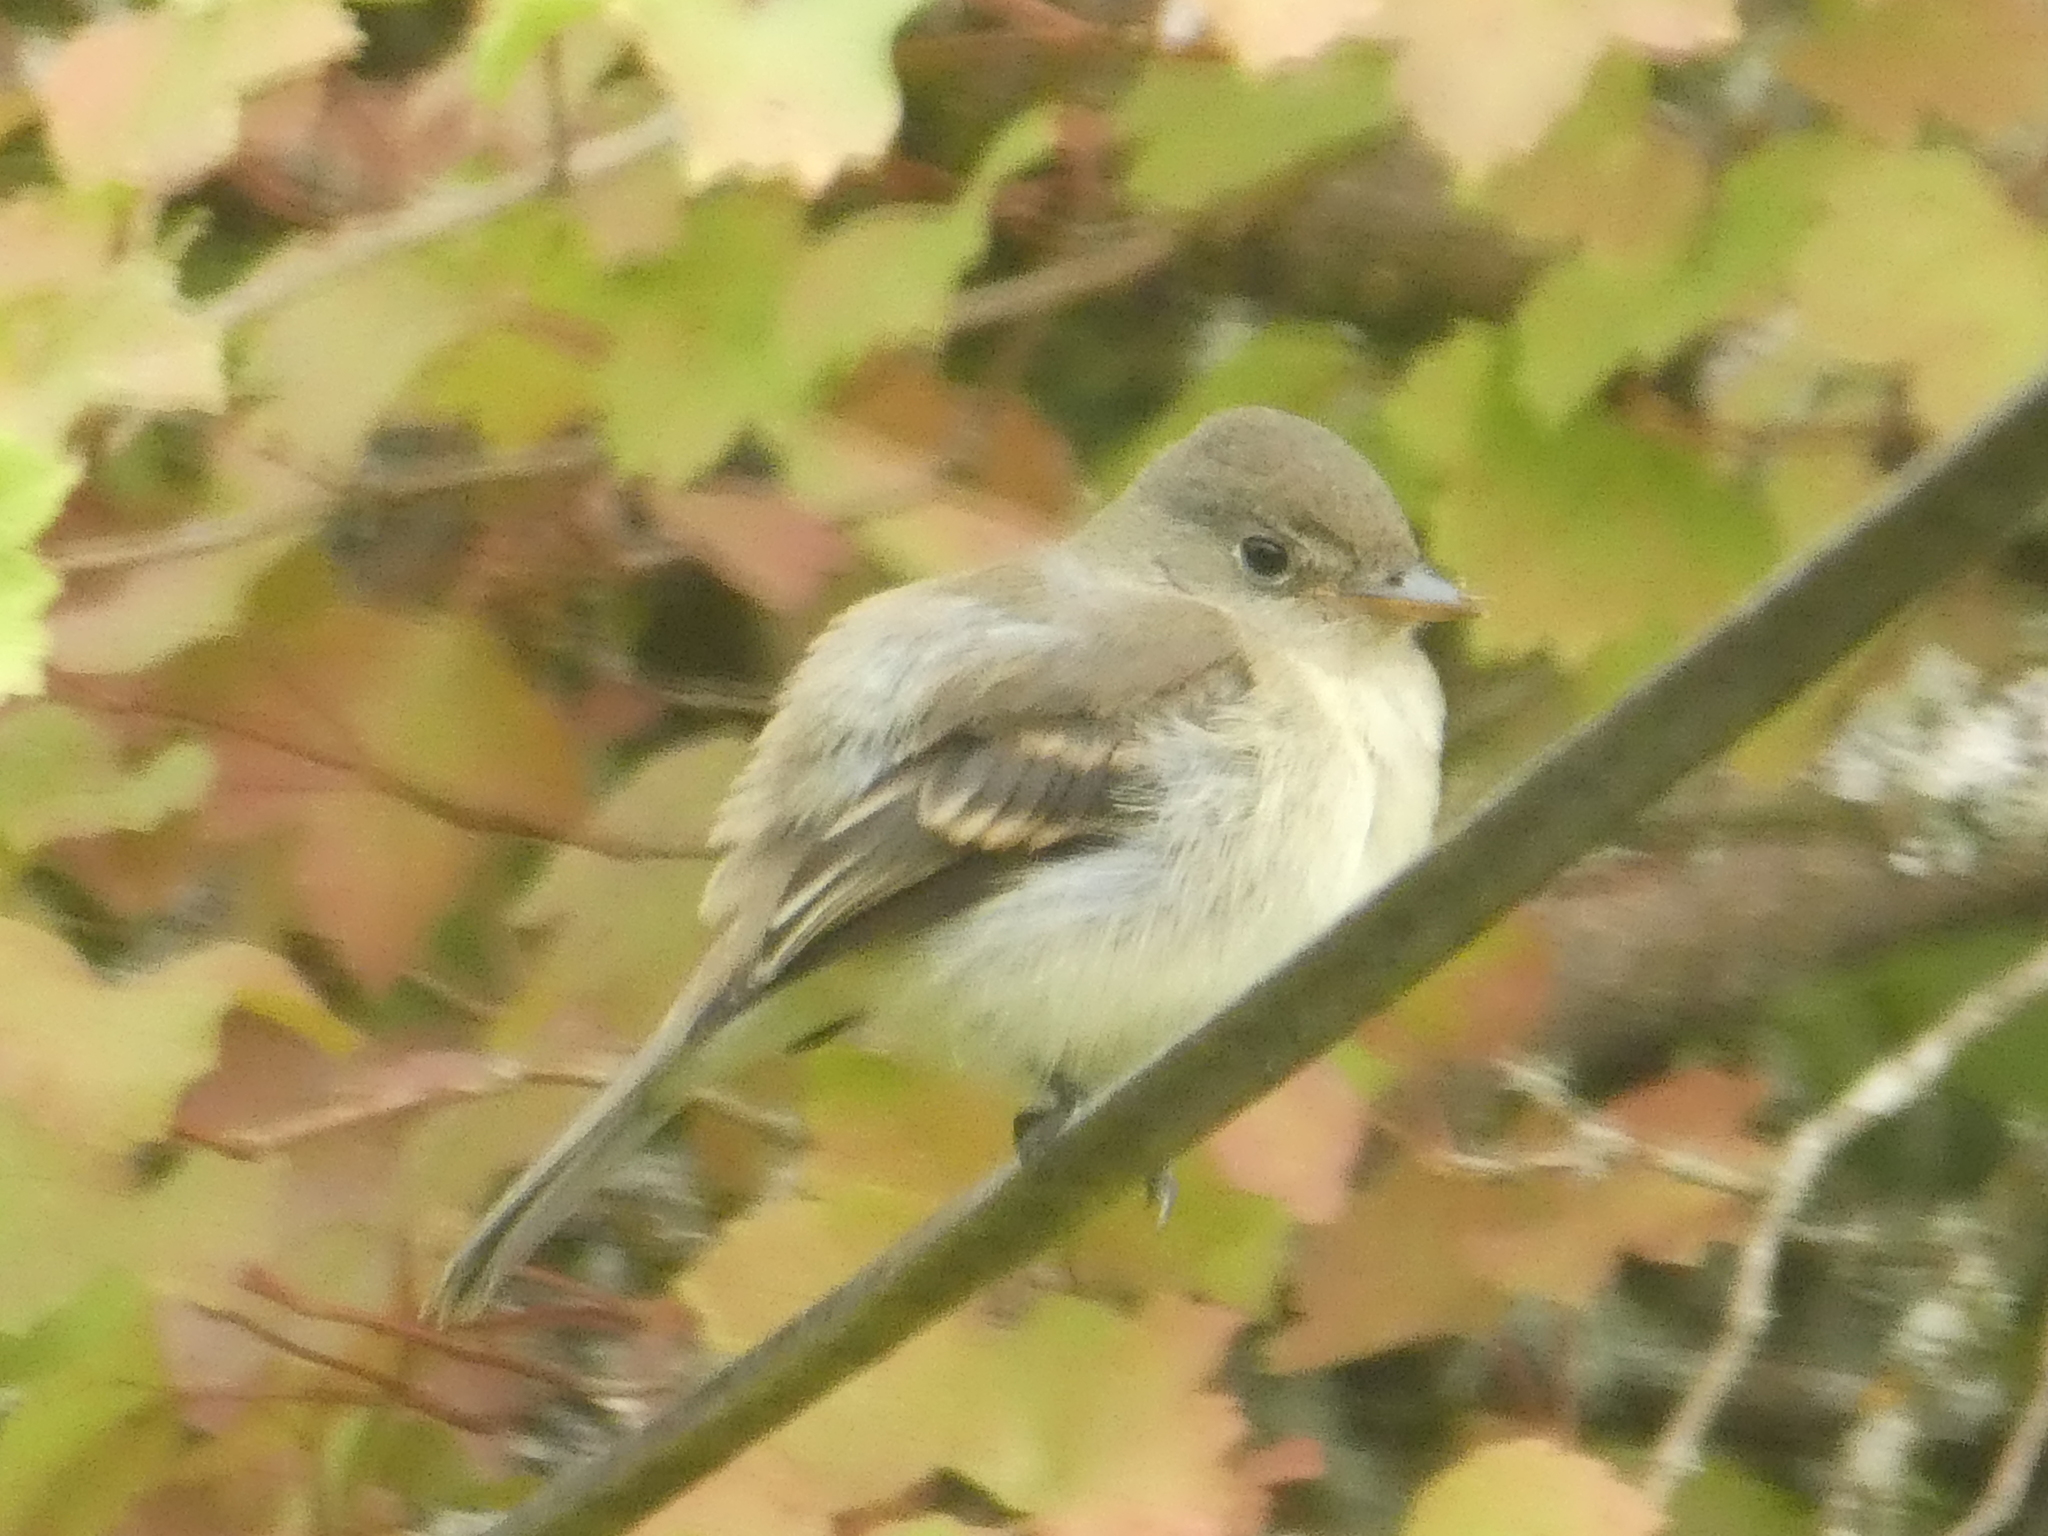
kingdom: Animalia
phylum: Chordata
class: Aves
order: Passeriformes
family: Tyrannidae
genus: Empidonax
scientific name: Empidonax traillii
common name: Willow flycatcher
